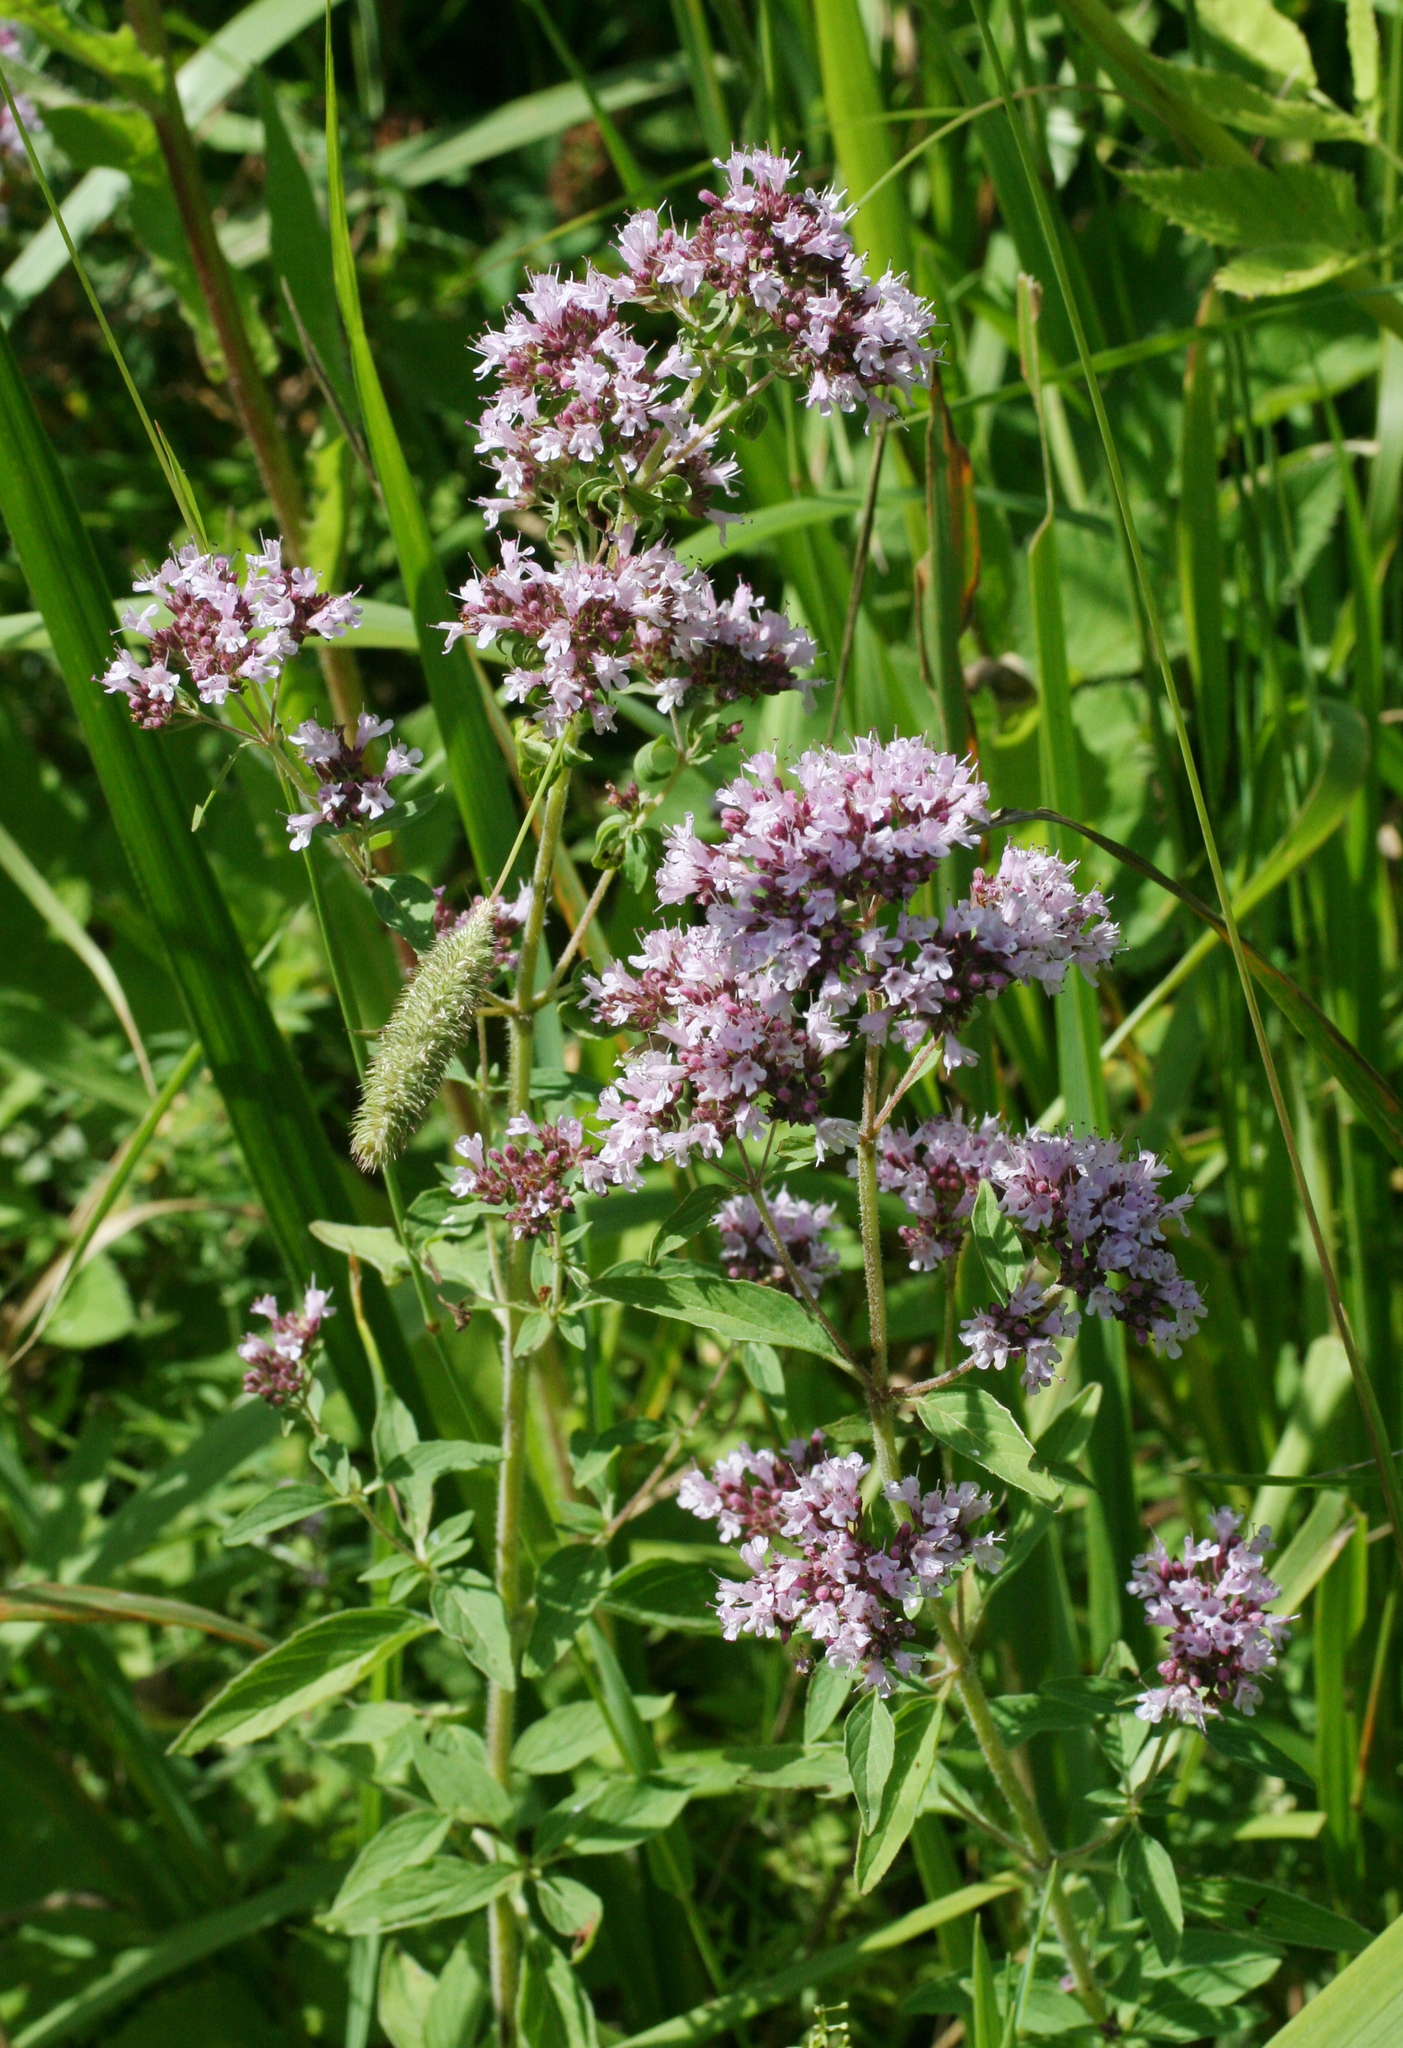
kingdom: Plantae
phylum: Tracheophyta
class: Magnoliopsida
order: Lamiales
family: Lamiaceae
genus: Origanum
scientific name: Origanum vulgare
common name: Wild marjoram
